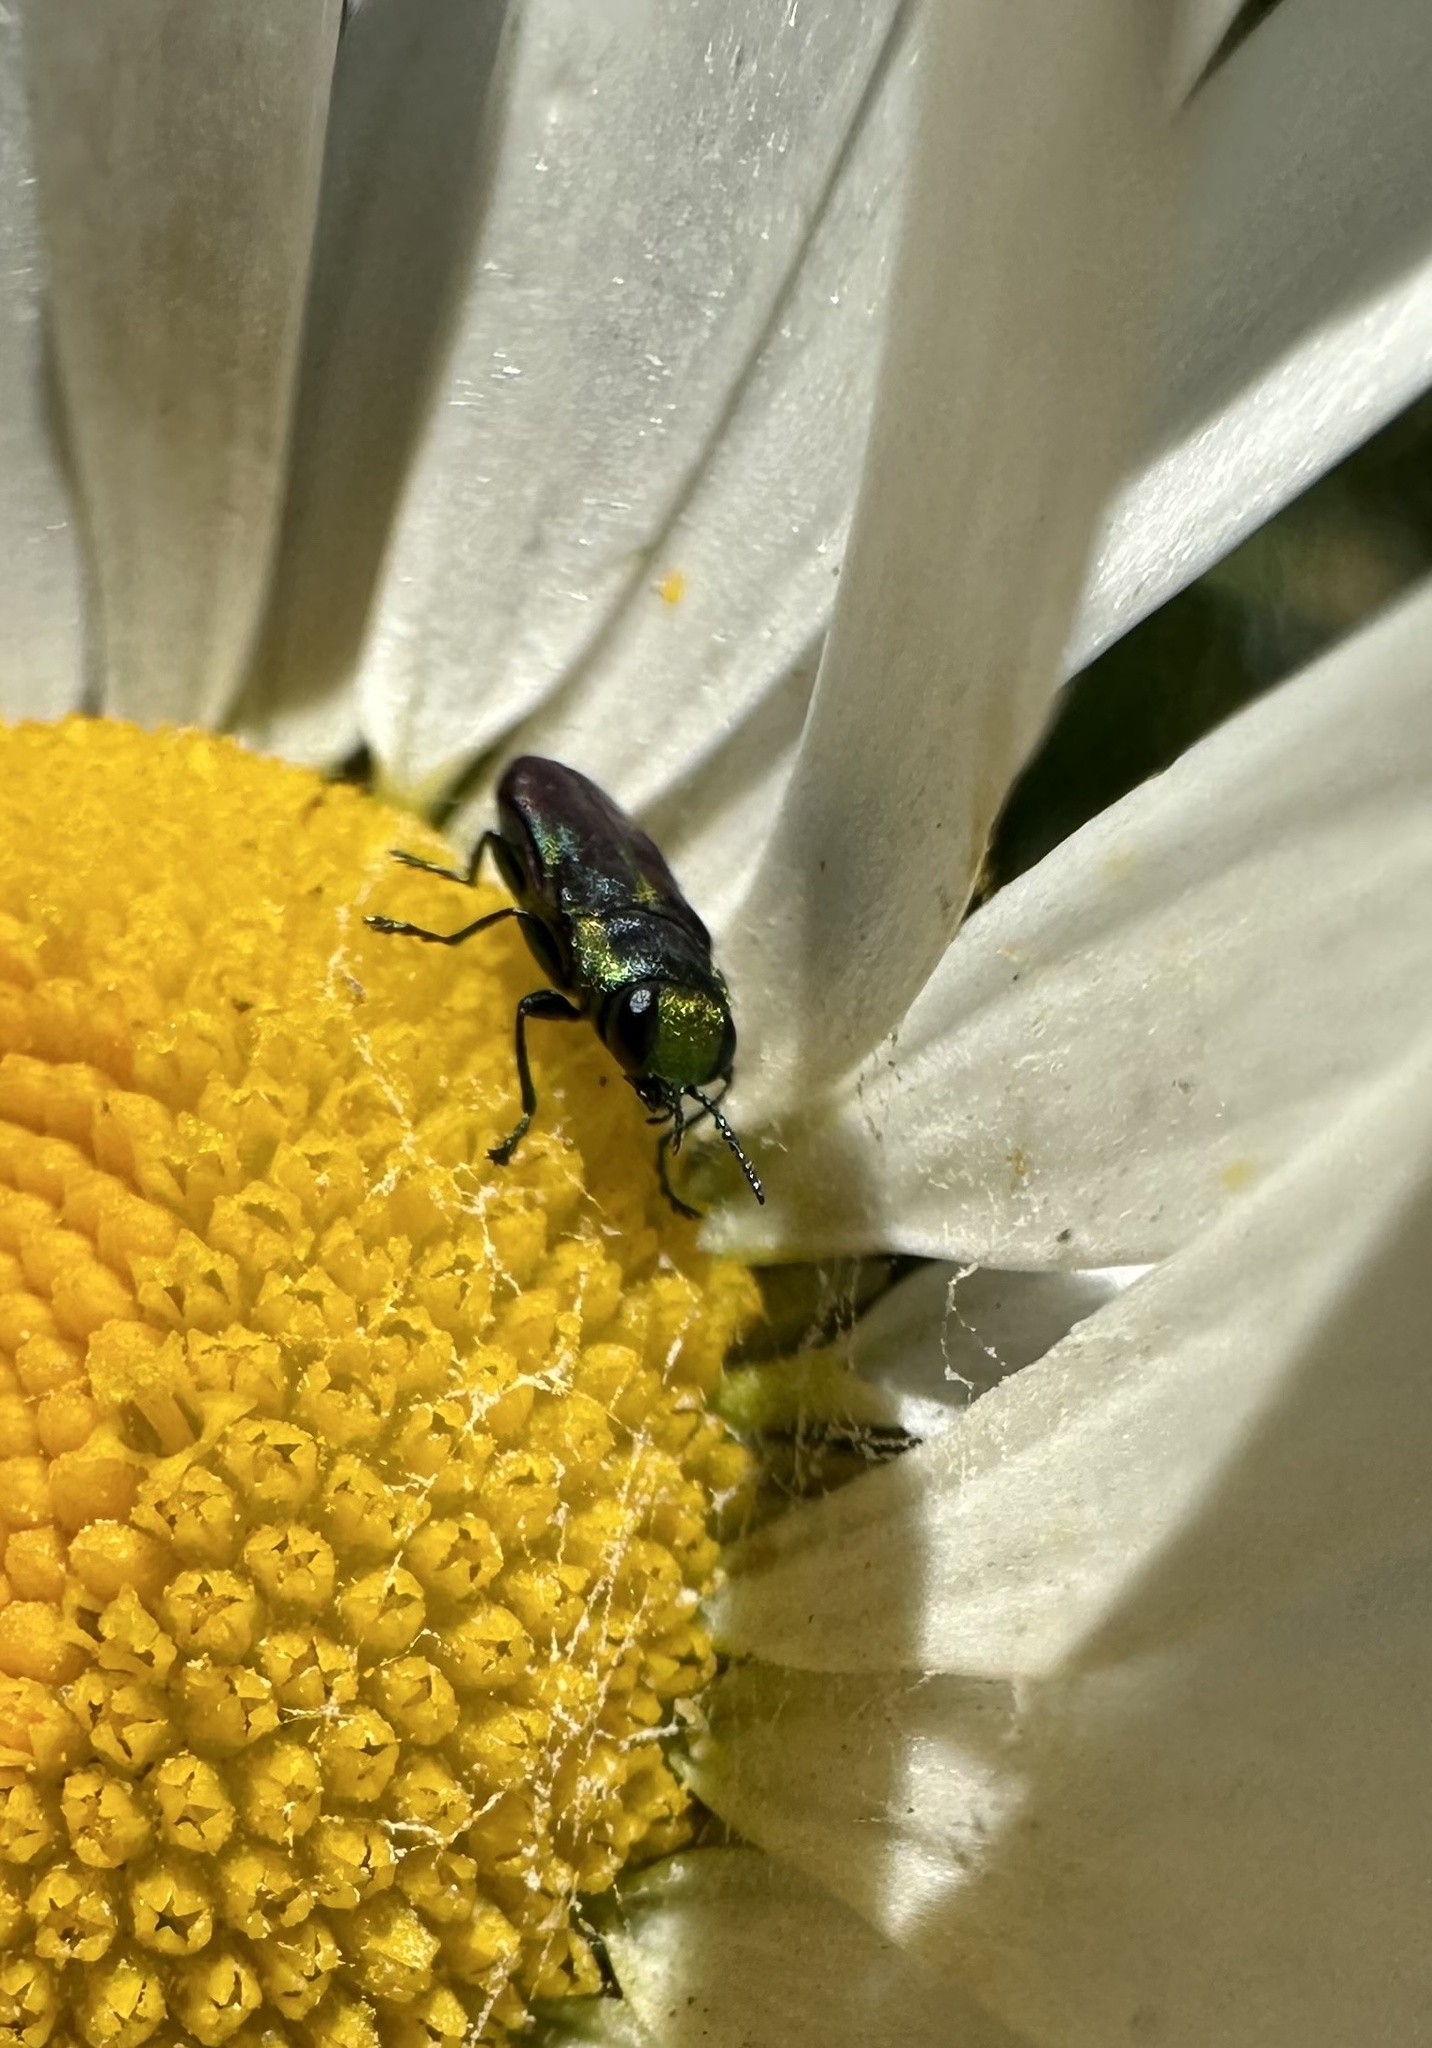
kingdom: Animalia
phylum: Arthropoda
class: Insecta
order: Coleoptera
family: Buprestidae
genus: Bilyaxia
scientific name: Bilyaxia concinna
